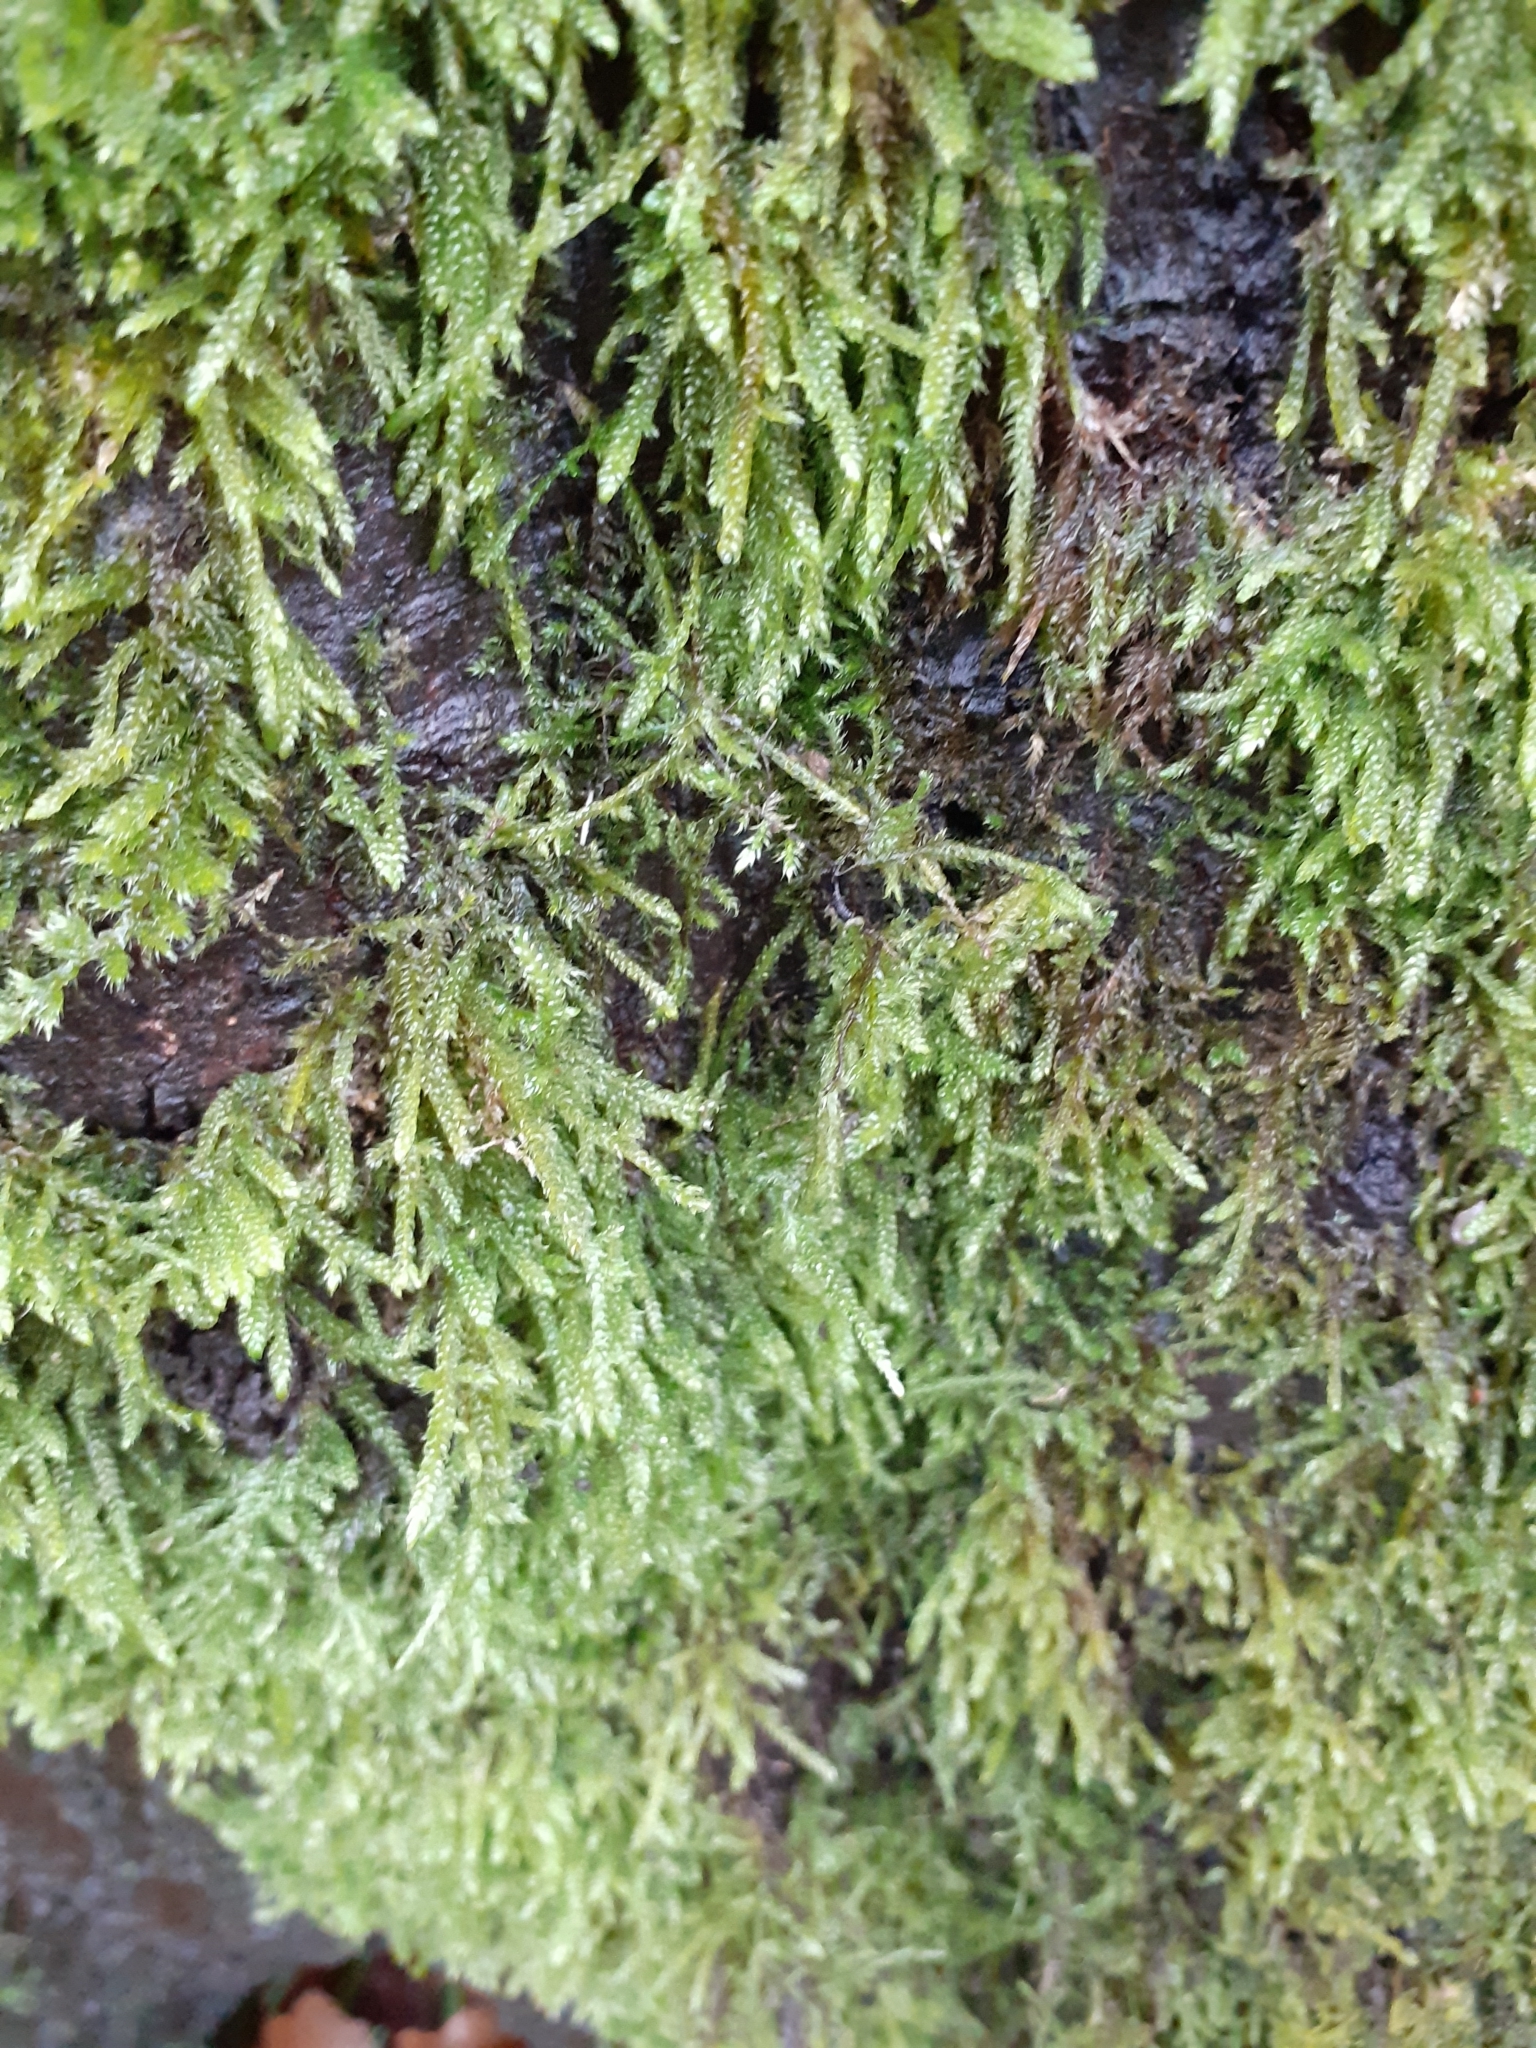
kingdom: Plantae
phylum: Bryophyta
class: Bryopsida
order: Hypnales
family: Hypnaceae
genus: Hypnum
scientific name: Hypnum andoi
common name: Ando's plait moss
